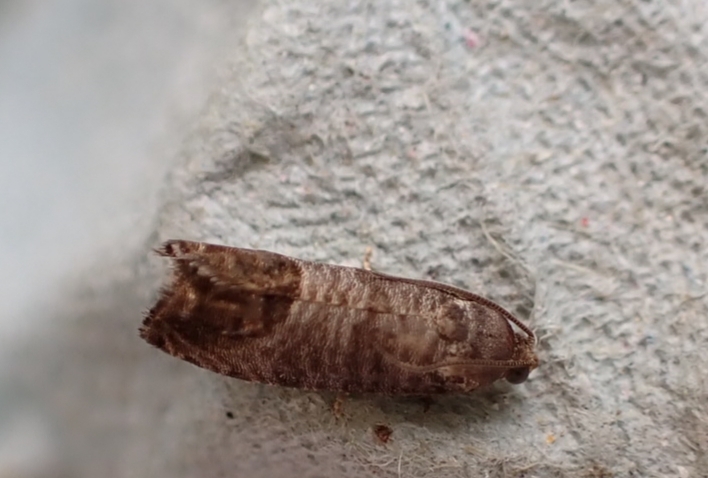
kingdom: Animalia
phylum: Arthropoda
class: Insecta
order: Lepidoptera
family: Tortricidae
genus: Cydia
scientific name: Cydia pomonella
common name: Codling moth
